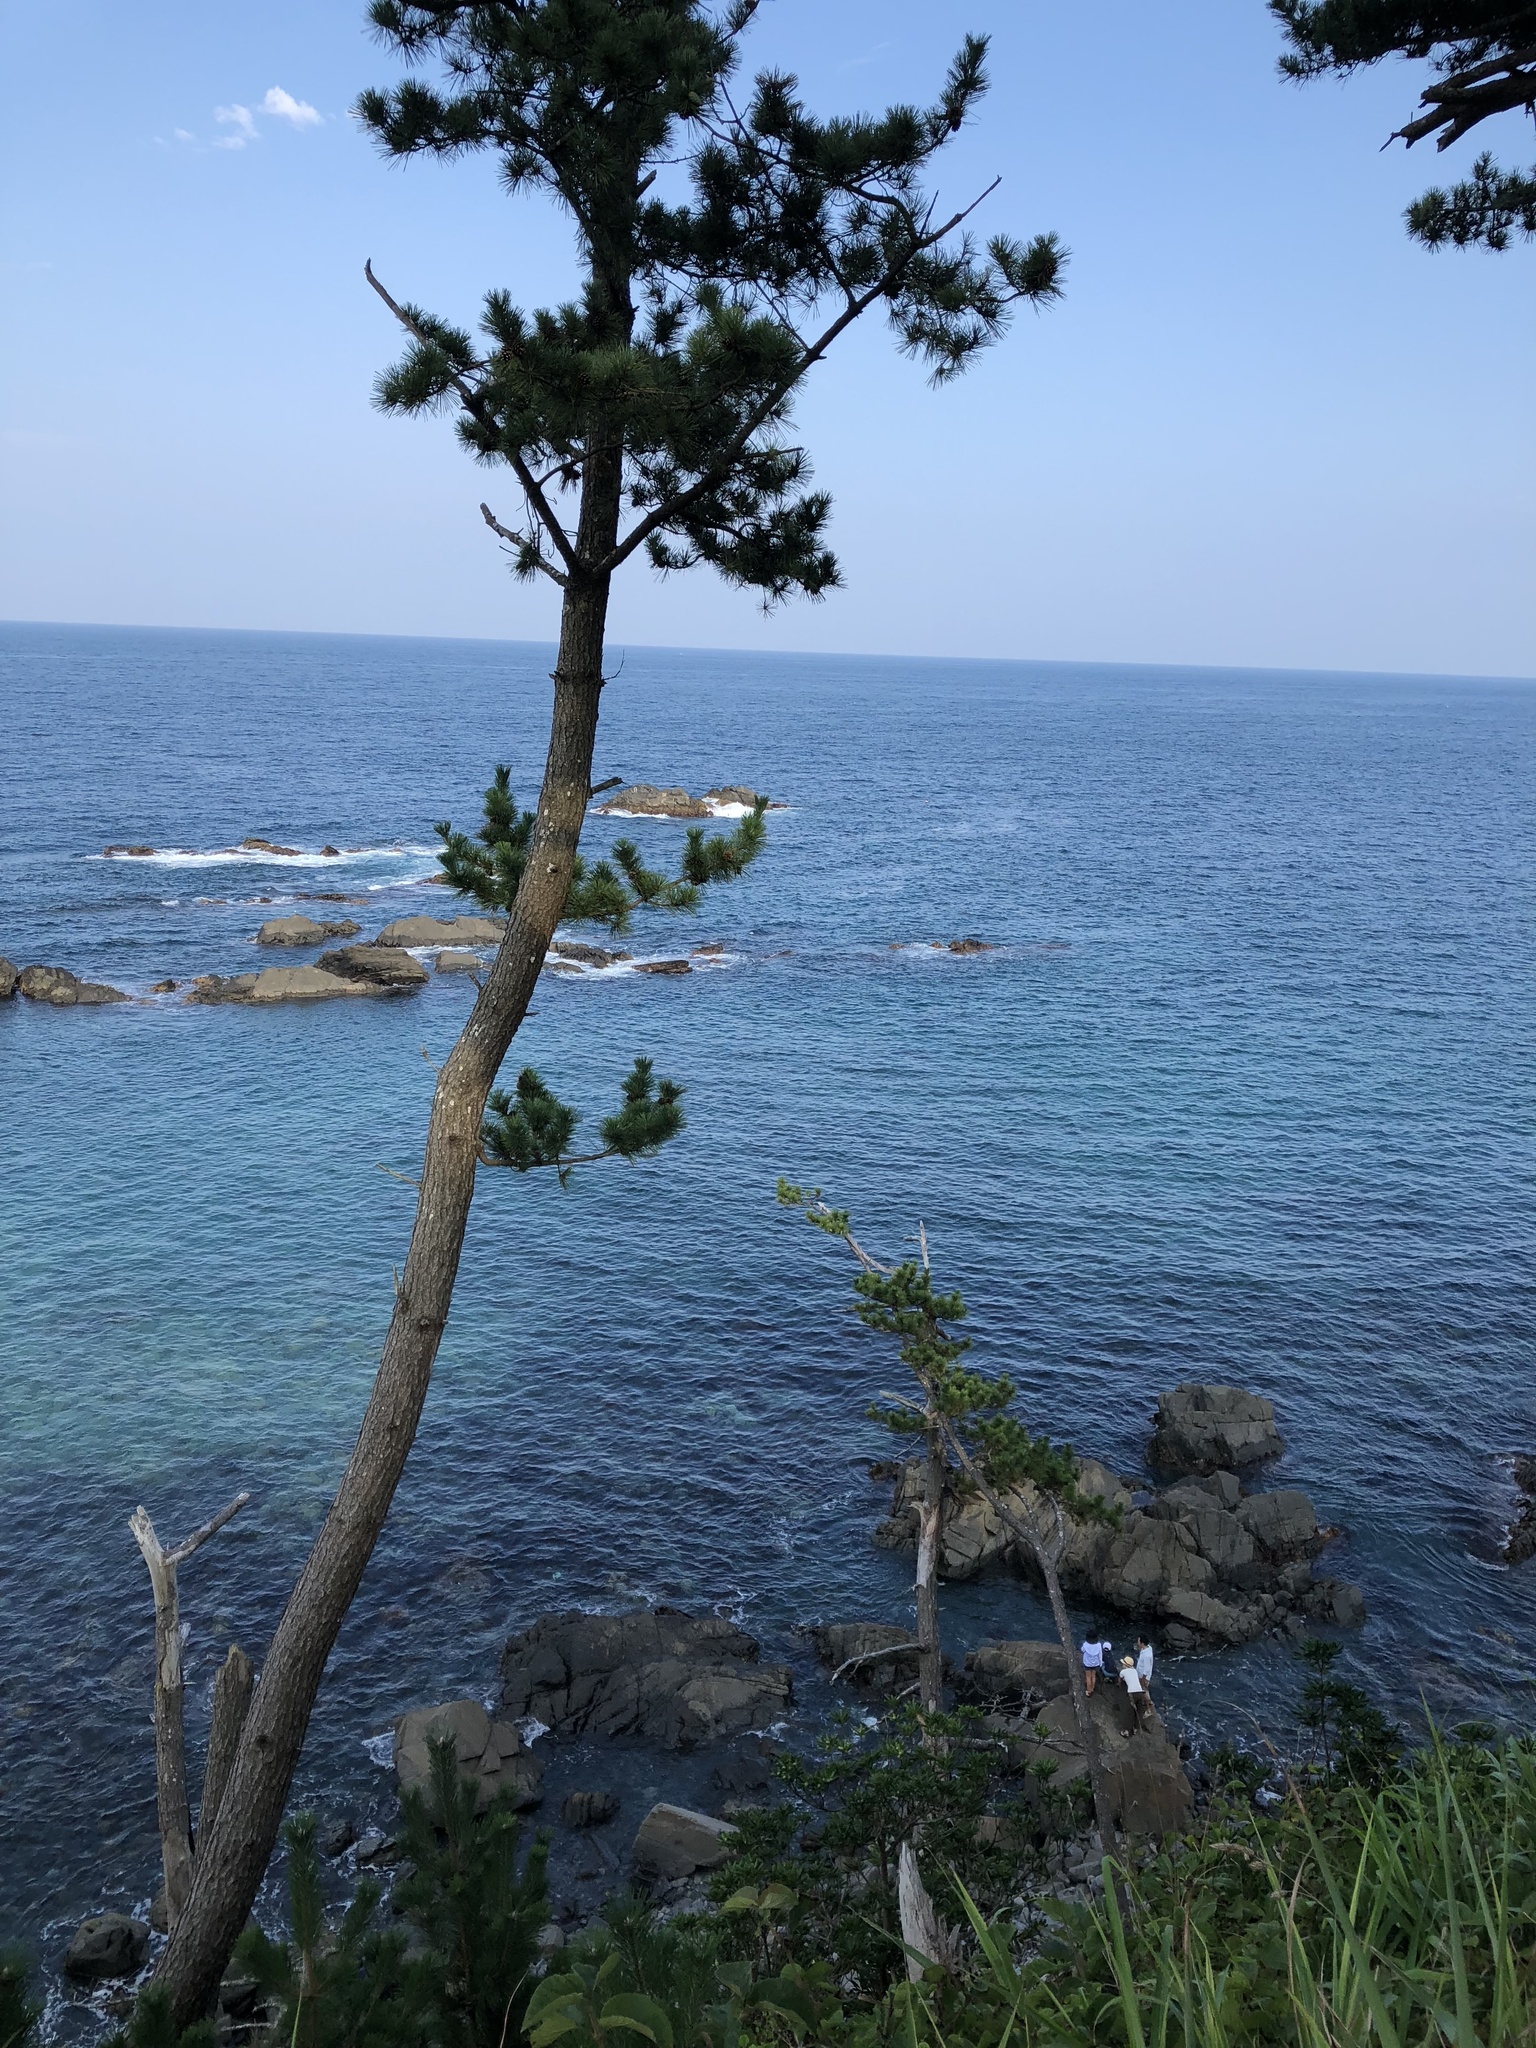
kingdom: Plantae
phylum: Tracheophyta
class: Pinopsida
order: Pinales
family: Pinaceae
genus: Pinus
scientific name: Pinus densiflora
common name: Japanese red pine
